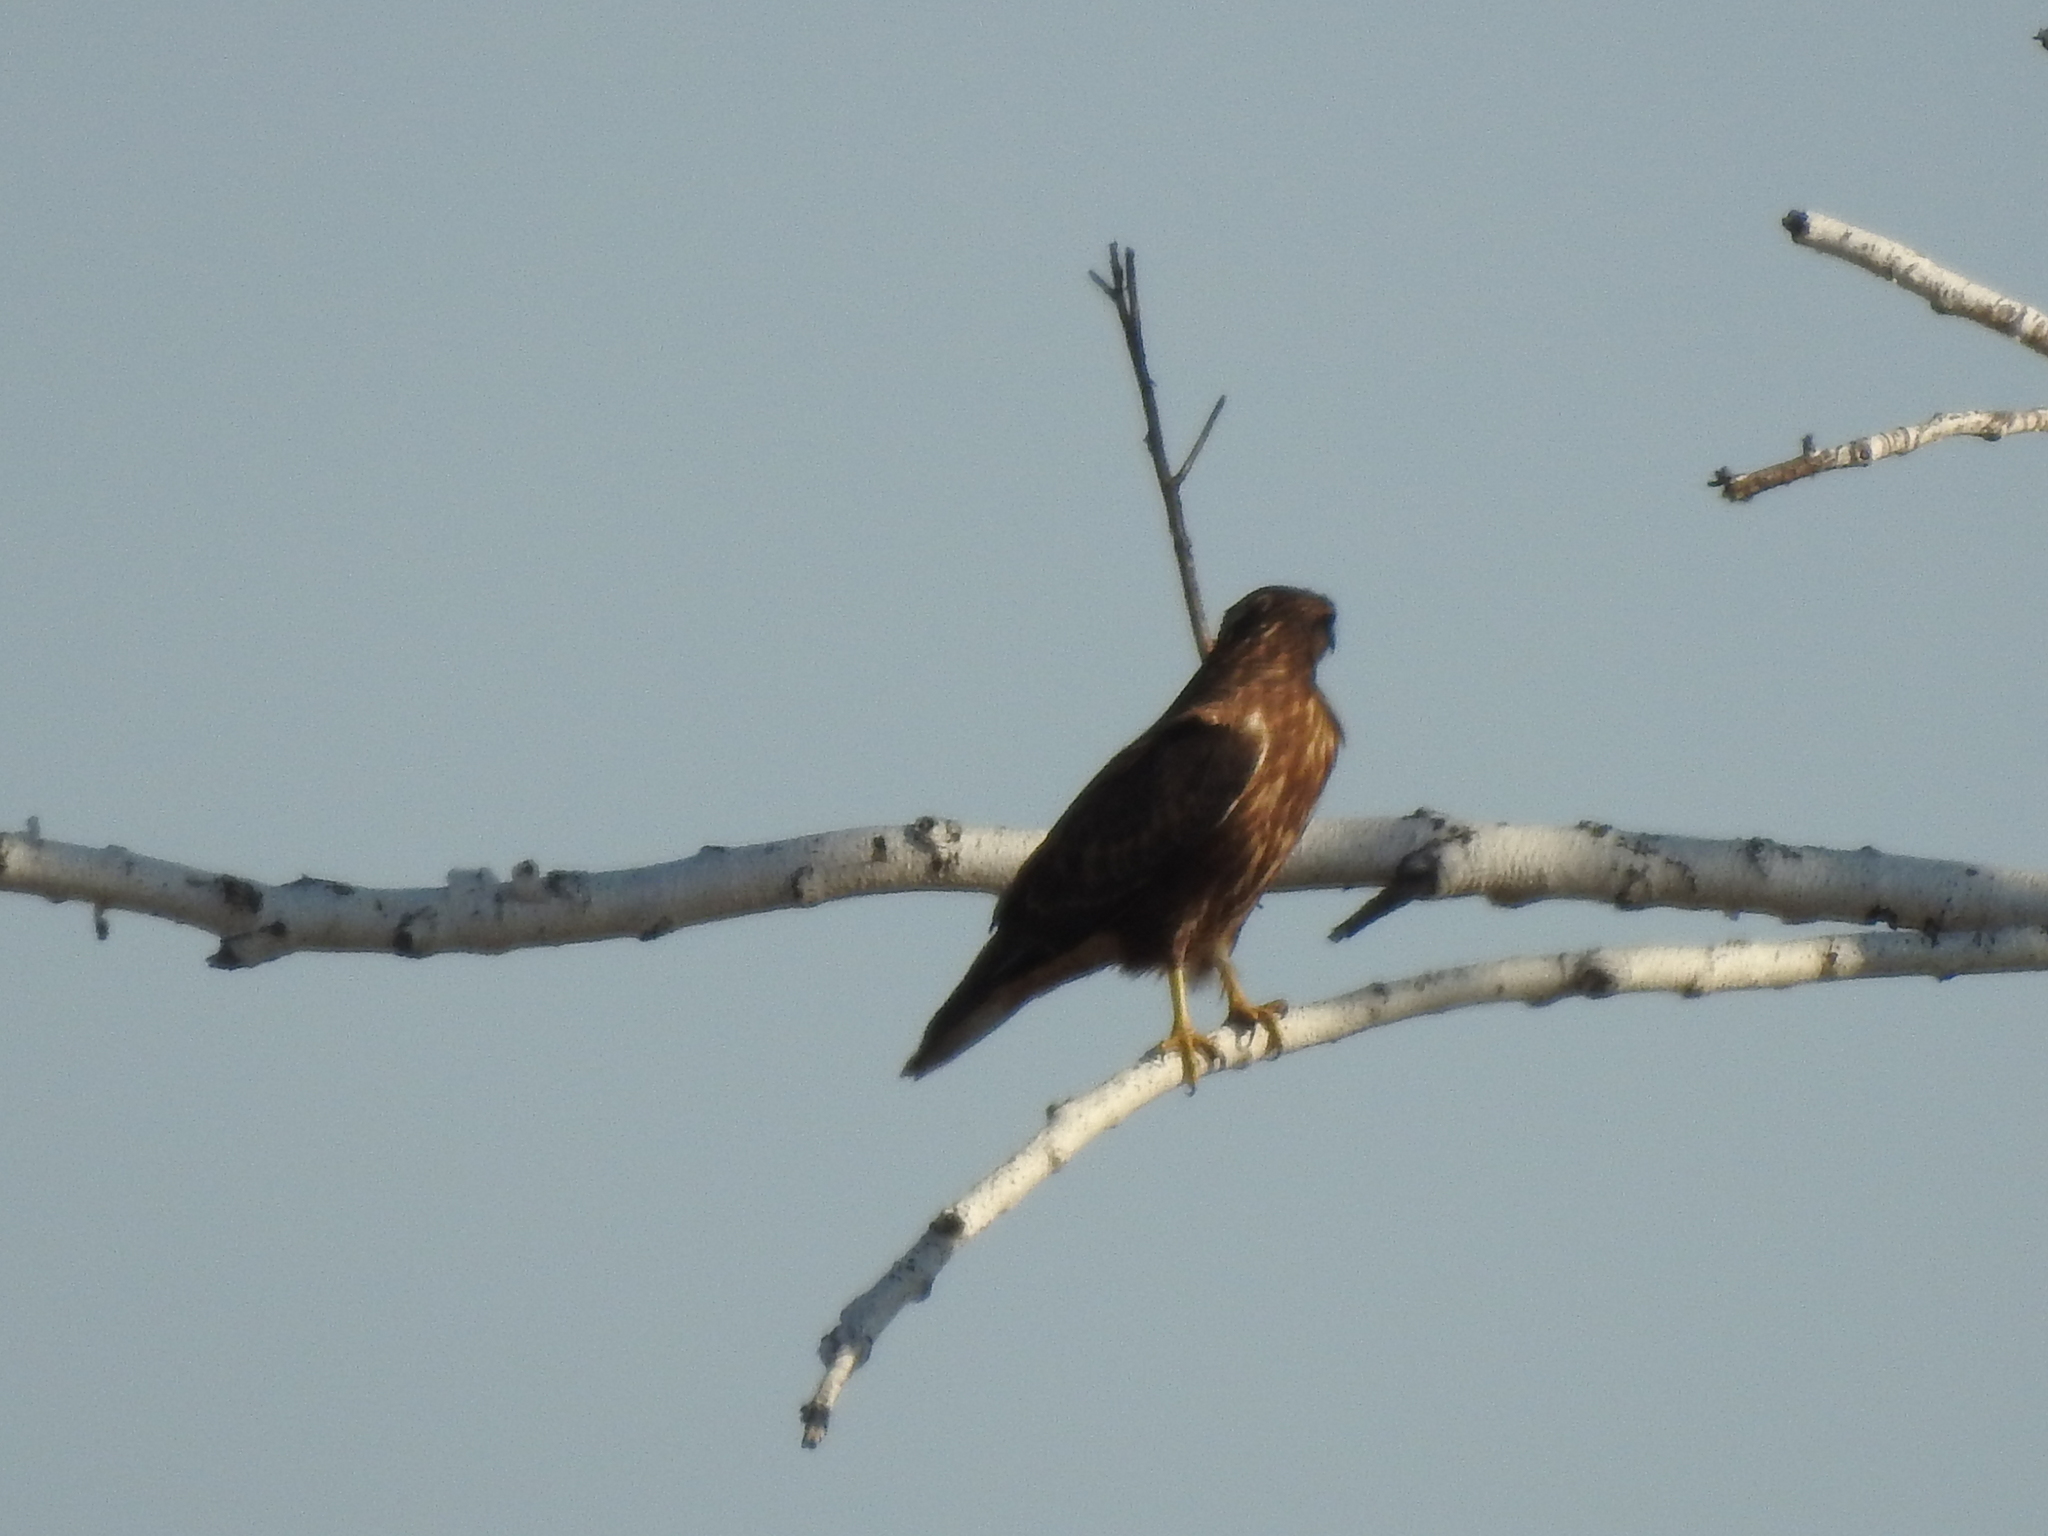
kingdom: Animalia
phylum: Chordata
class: Aves
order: Accipitriformes
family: Accipitridae
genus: Buteo
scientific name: Buteo buteo
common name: Common buzzard
